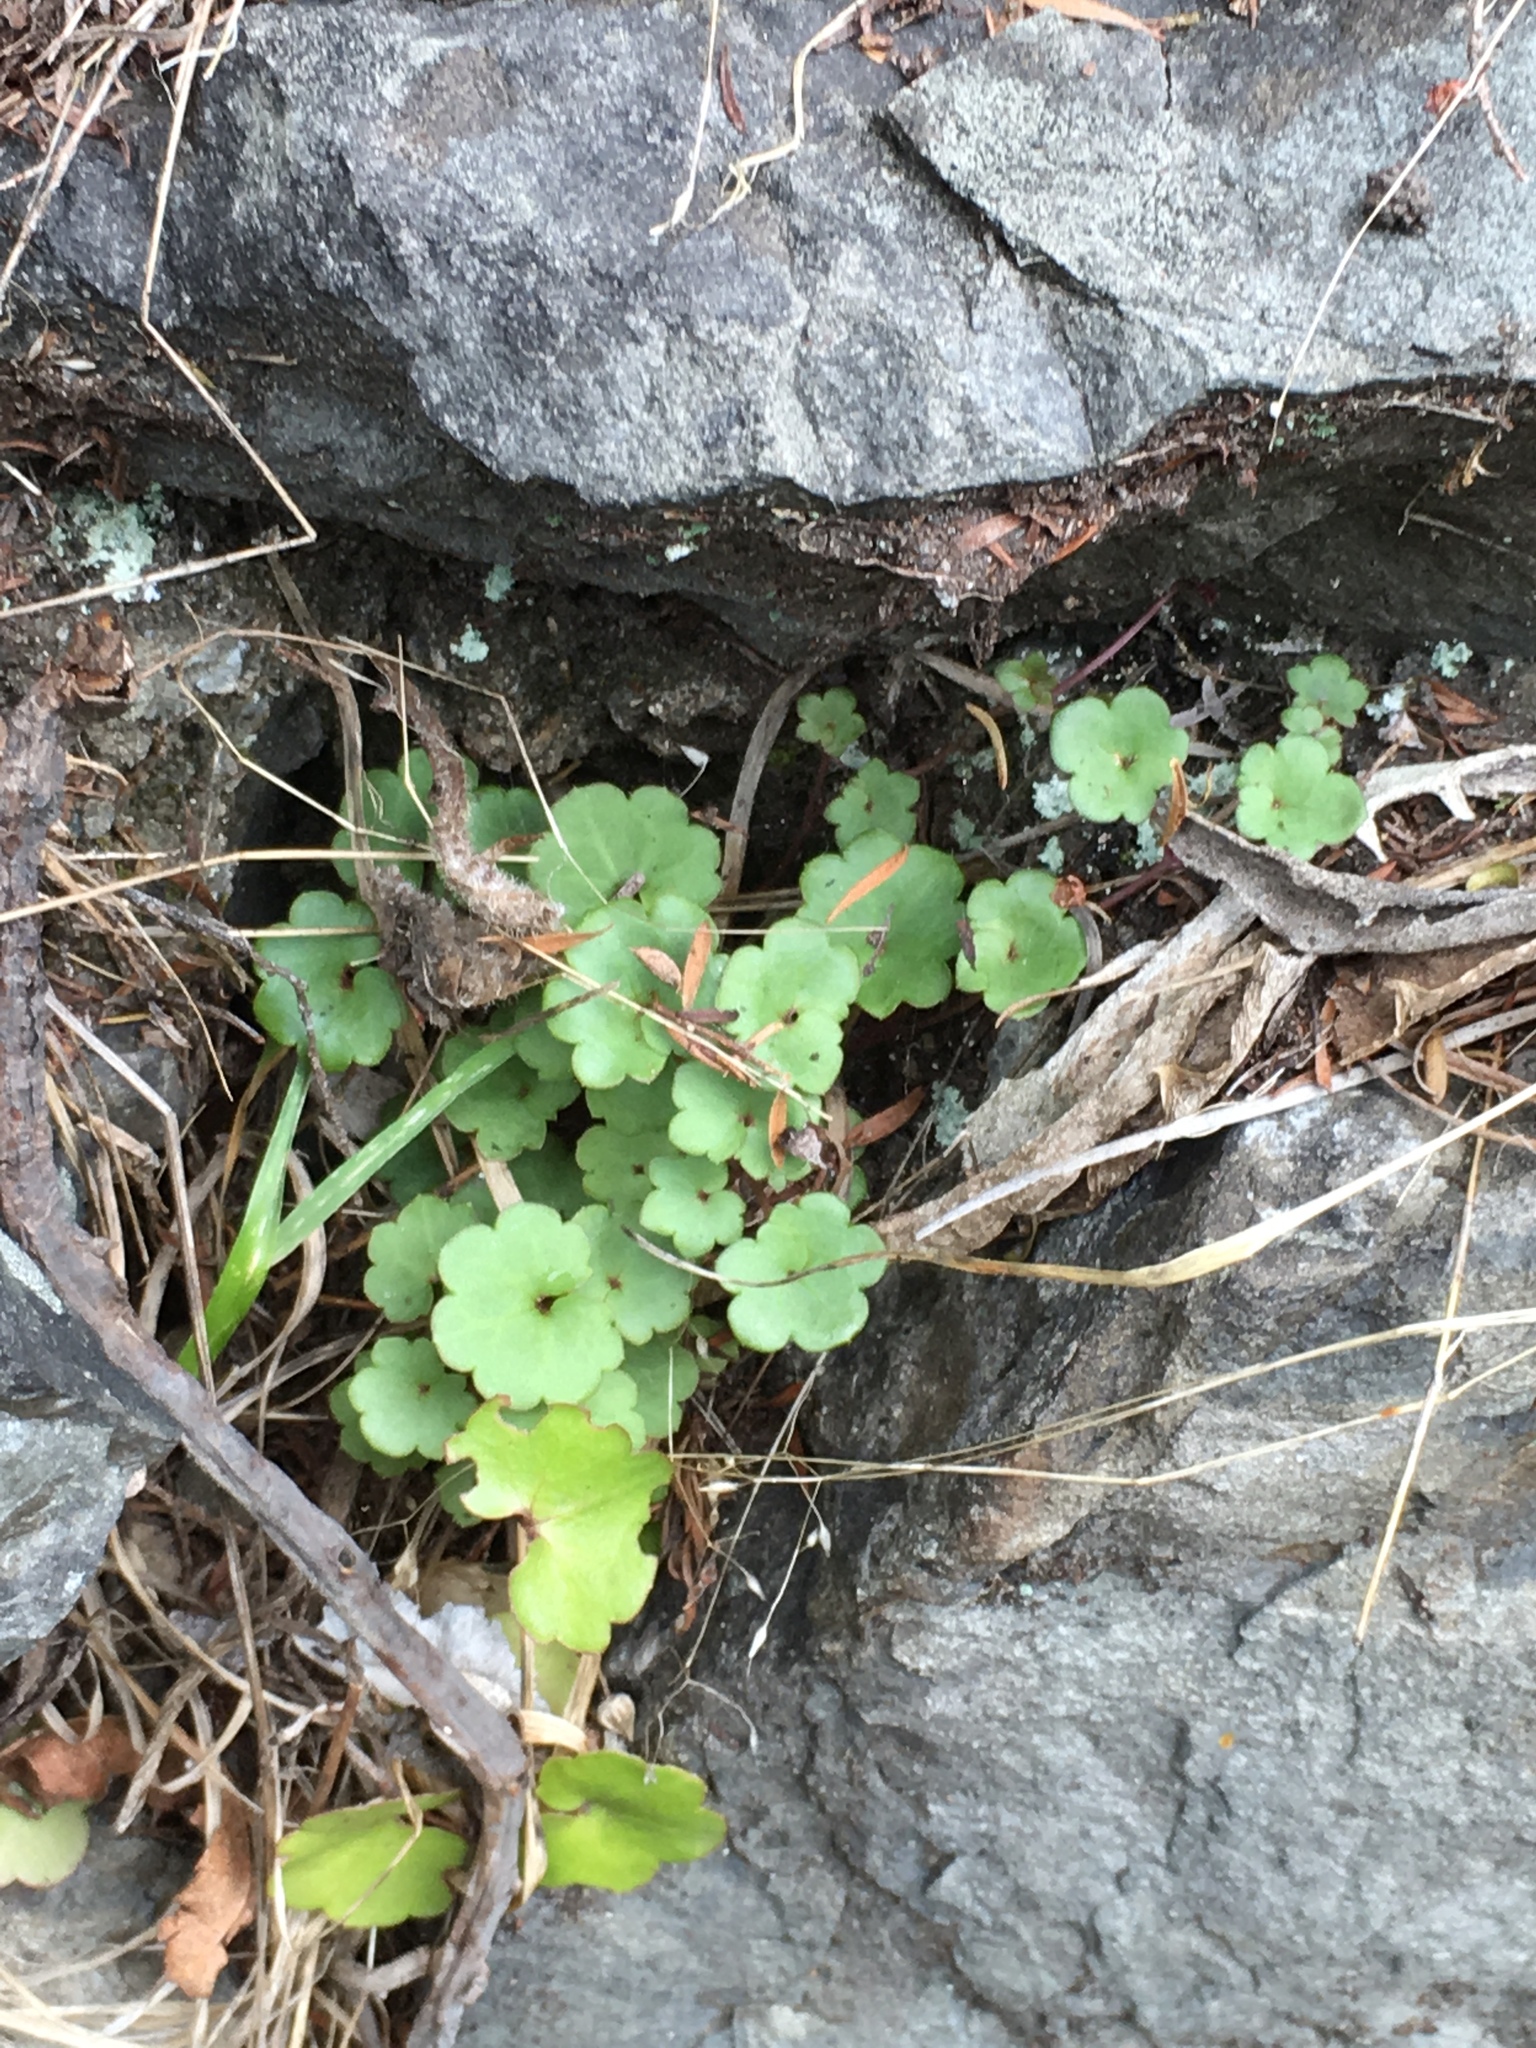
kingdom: Plantae
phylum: Tracheophyta
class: Magnoliopsida
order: Lamiales
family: Plantaginaceae
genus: Cymbalaria
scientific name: Cymbalaria muralis
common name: Ivy-leaved toadflax
